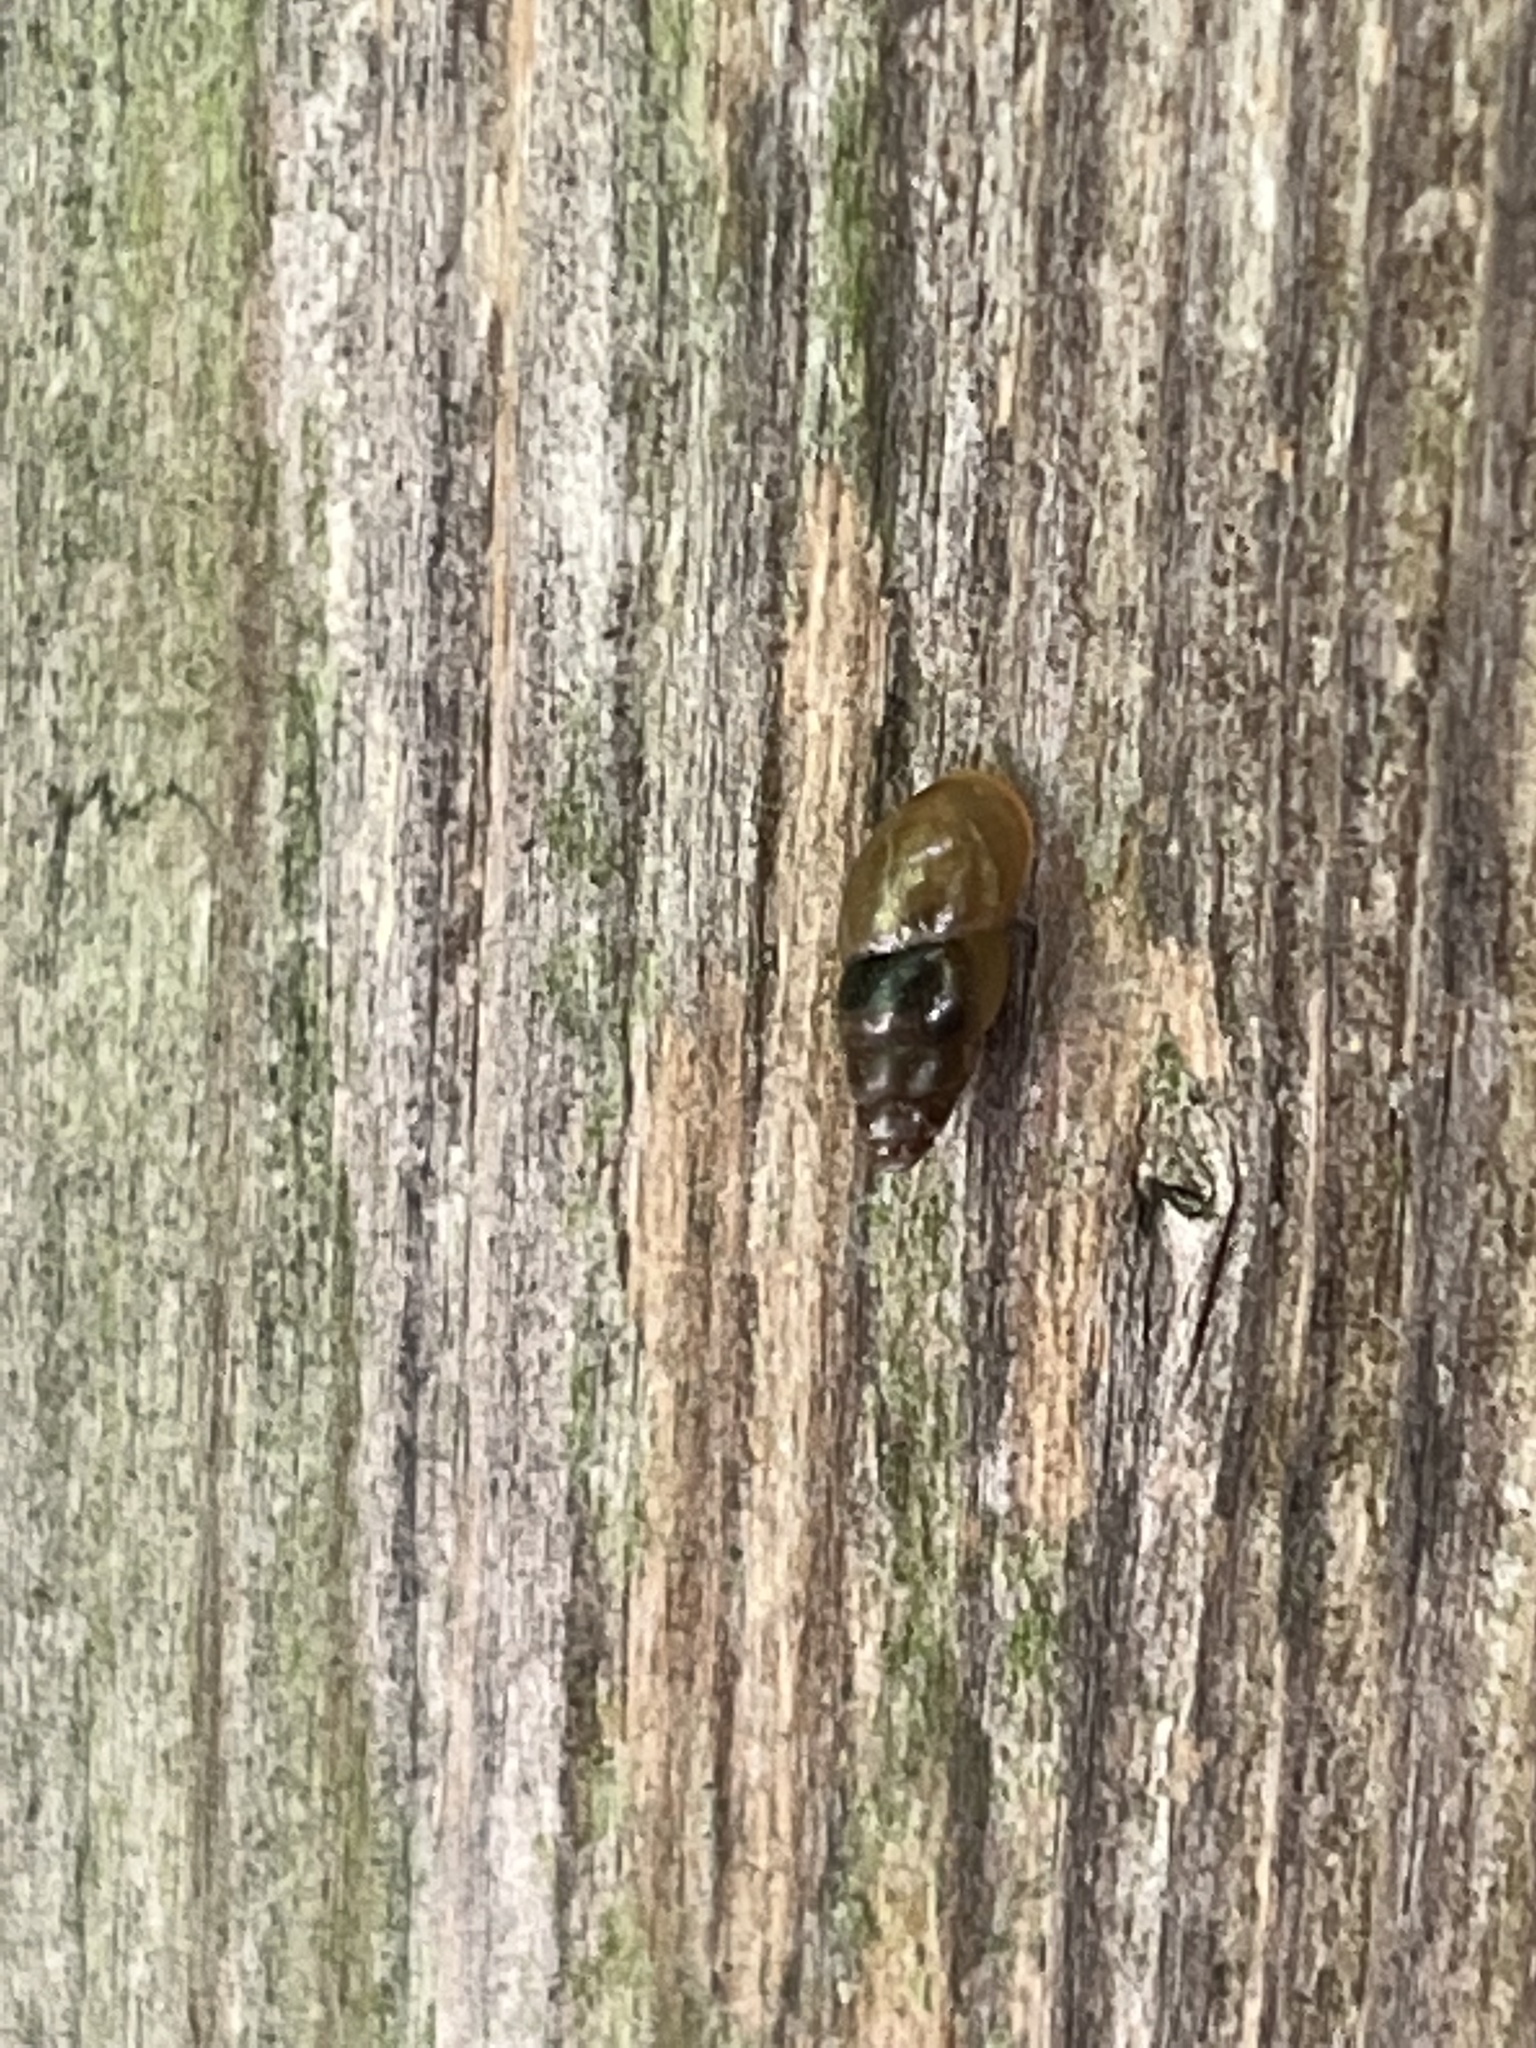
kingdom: Animalia
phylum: Mollusca
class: Gastropoda
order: Stylommatophora
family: Cochlicopidae
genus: Cochlicopa
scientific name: Cochlicopa lubrica
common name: Glossy pillar snail
